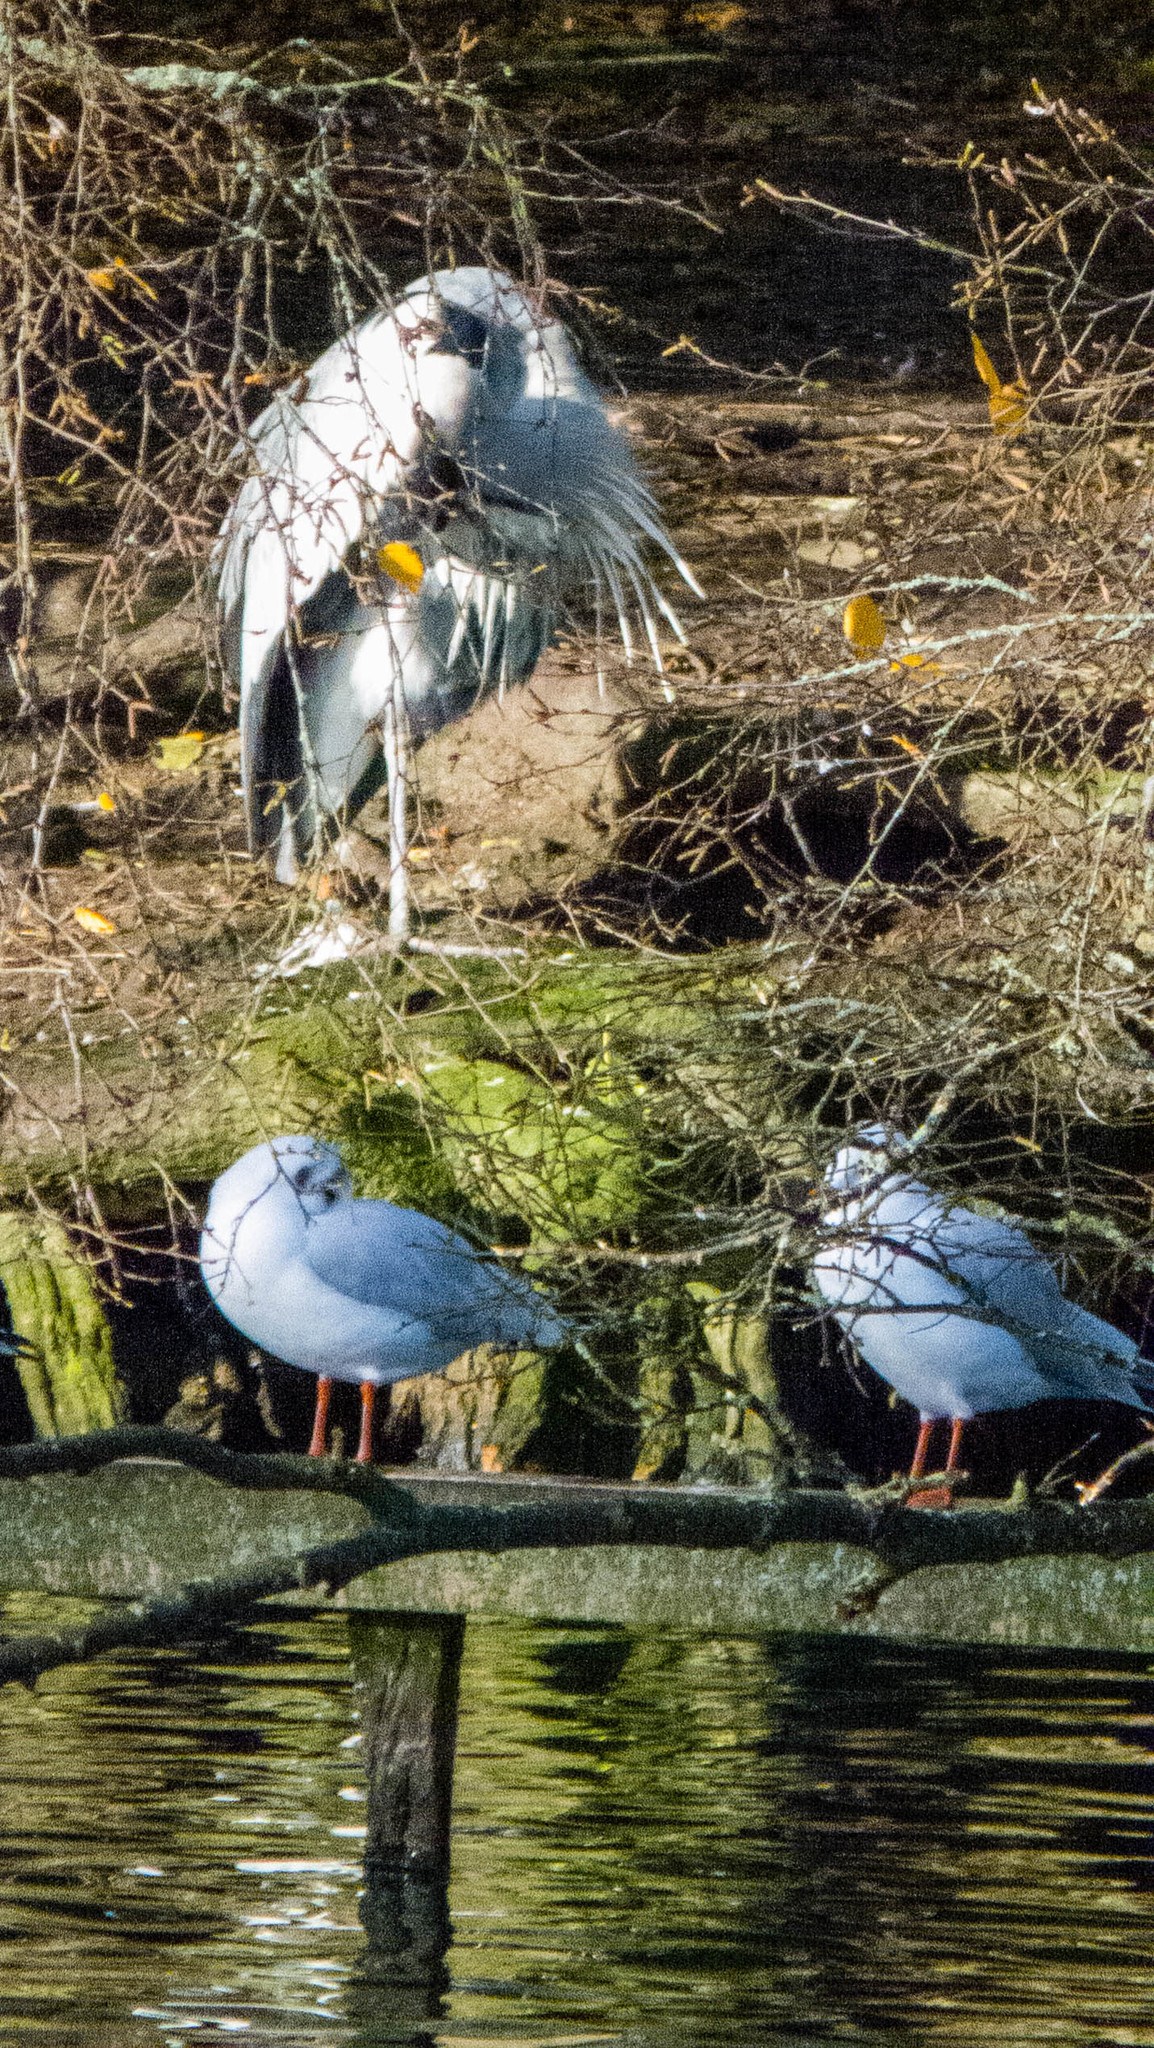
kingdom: Animalia
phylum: Chordata
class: Aves
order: Pelecaniformes
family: Ardeidae
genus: Ardea
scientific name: Ardea cinerea
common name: Grey heron
